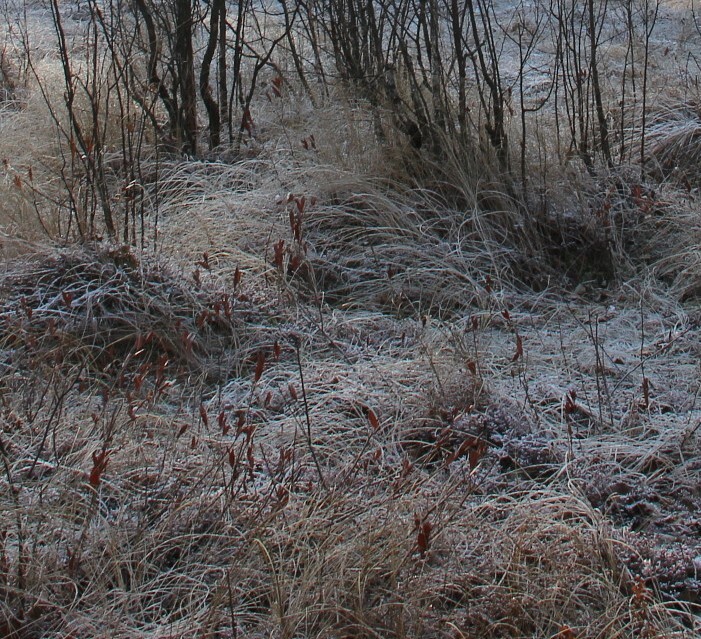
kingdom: Plantae
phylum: Tracheophyta
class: Magnoliopsida
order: Ericales
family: Ericaceae
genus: Chamaedaphne
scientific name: Chamaedaphne calyculata
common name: Leatherleaf
